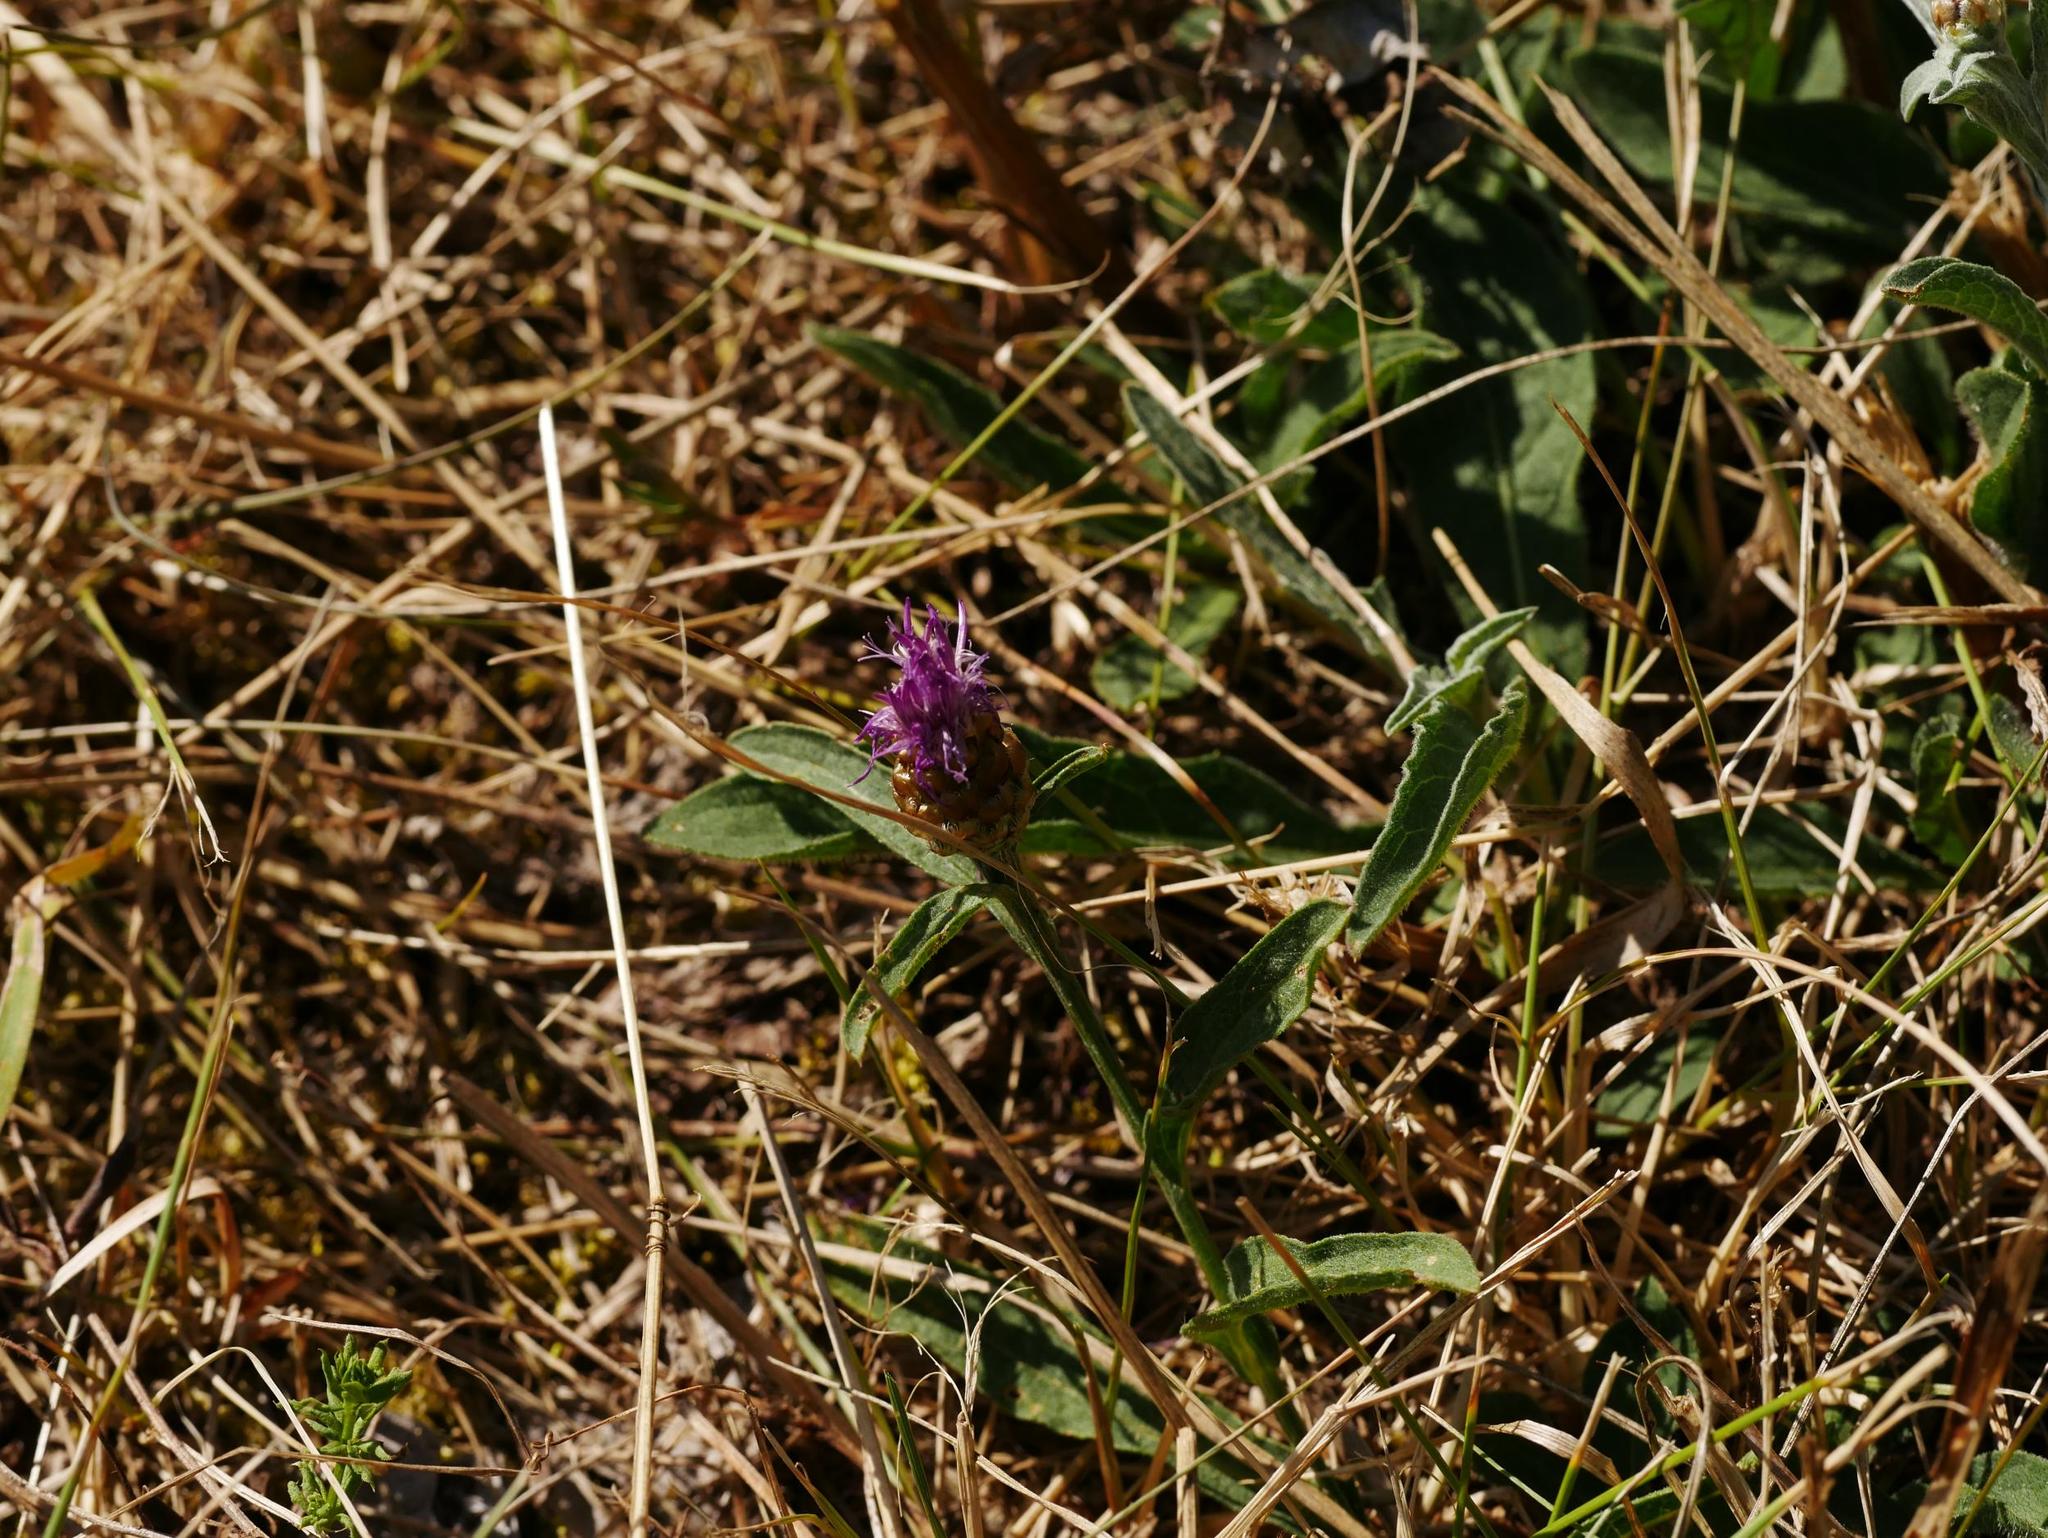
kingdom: Plantae
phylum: Tracheophyta
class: Magnoliopsida
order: Asterales
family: Asteraceae
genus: Centaurea
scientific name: Centaurea jacea
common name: Brown knapweed
